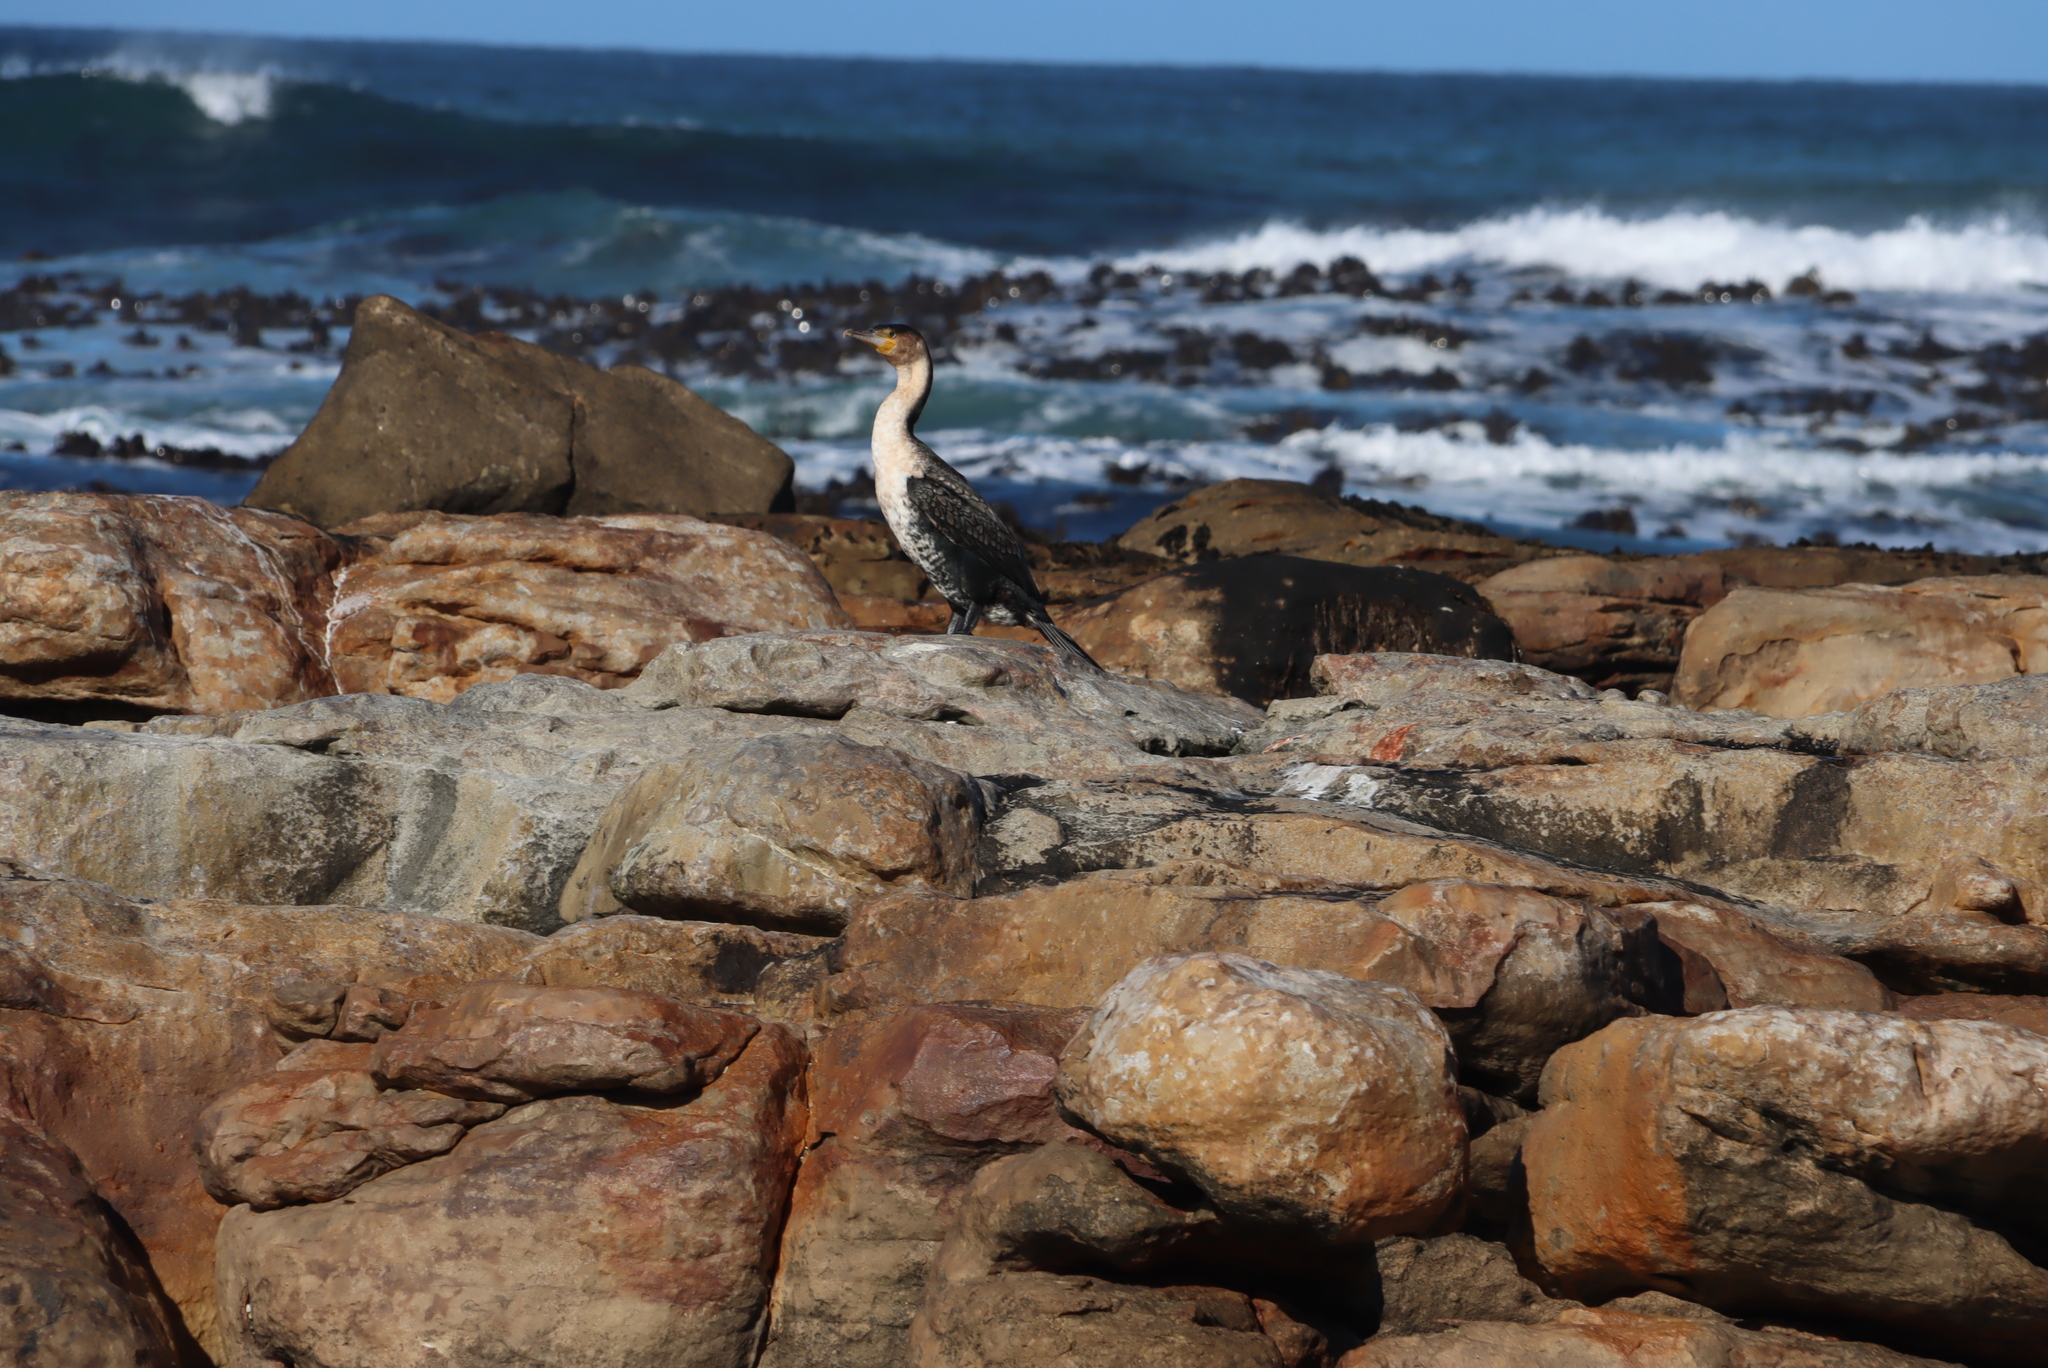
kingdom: Animalia
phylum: Chordata
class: Aves
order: Suliformes
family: Phalacrocoracidae
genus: Phalacrocorax
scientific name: Phalacrocorax carbo
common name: Great cormorant
